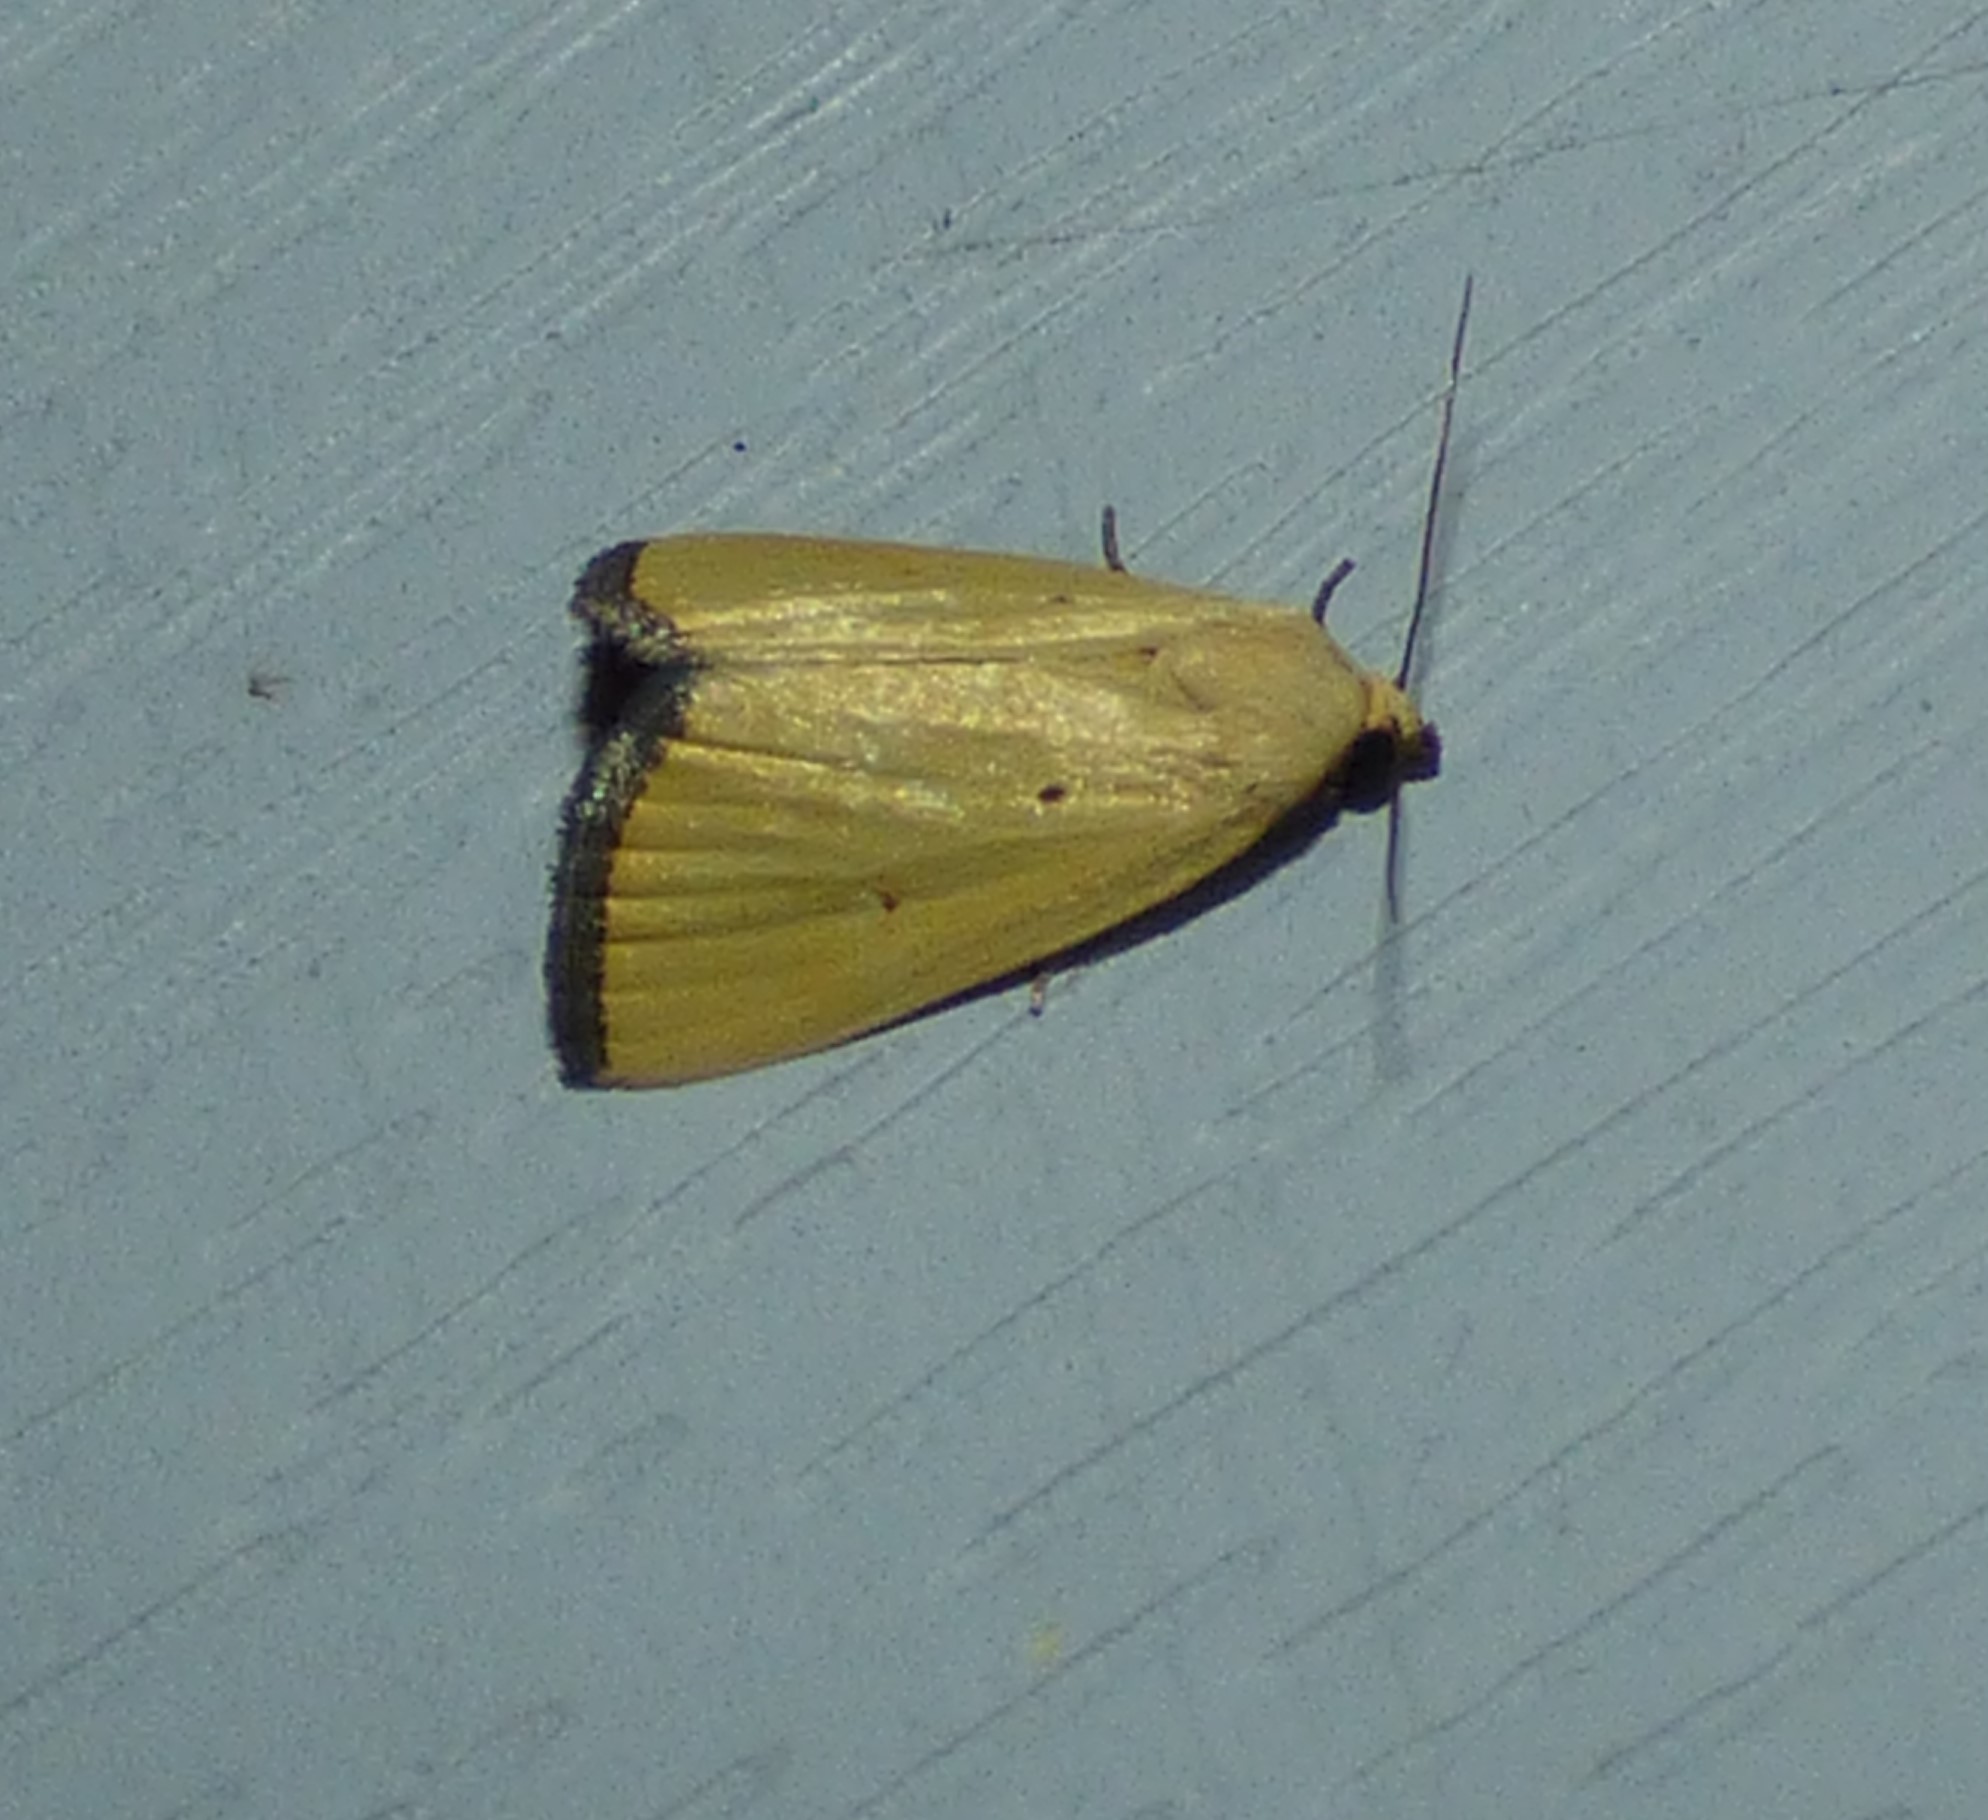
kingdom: Animalia
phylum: Arthropoda
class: Insecta
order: Lepidoptera
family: Noctuidae
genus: Marimatha
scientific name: Marimatha nigrofimbria
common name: Black-bordered lemon moth
